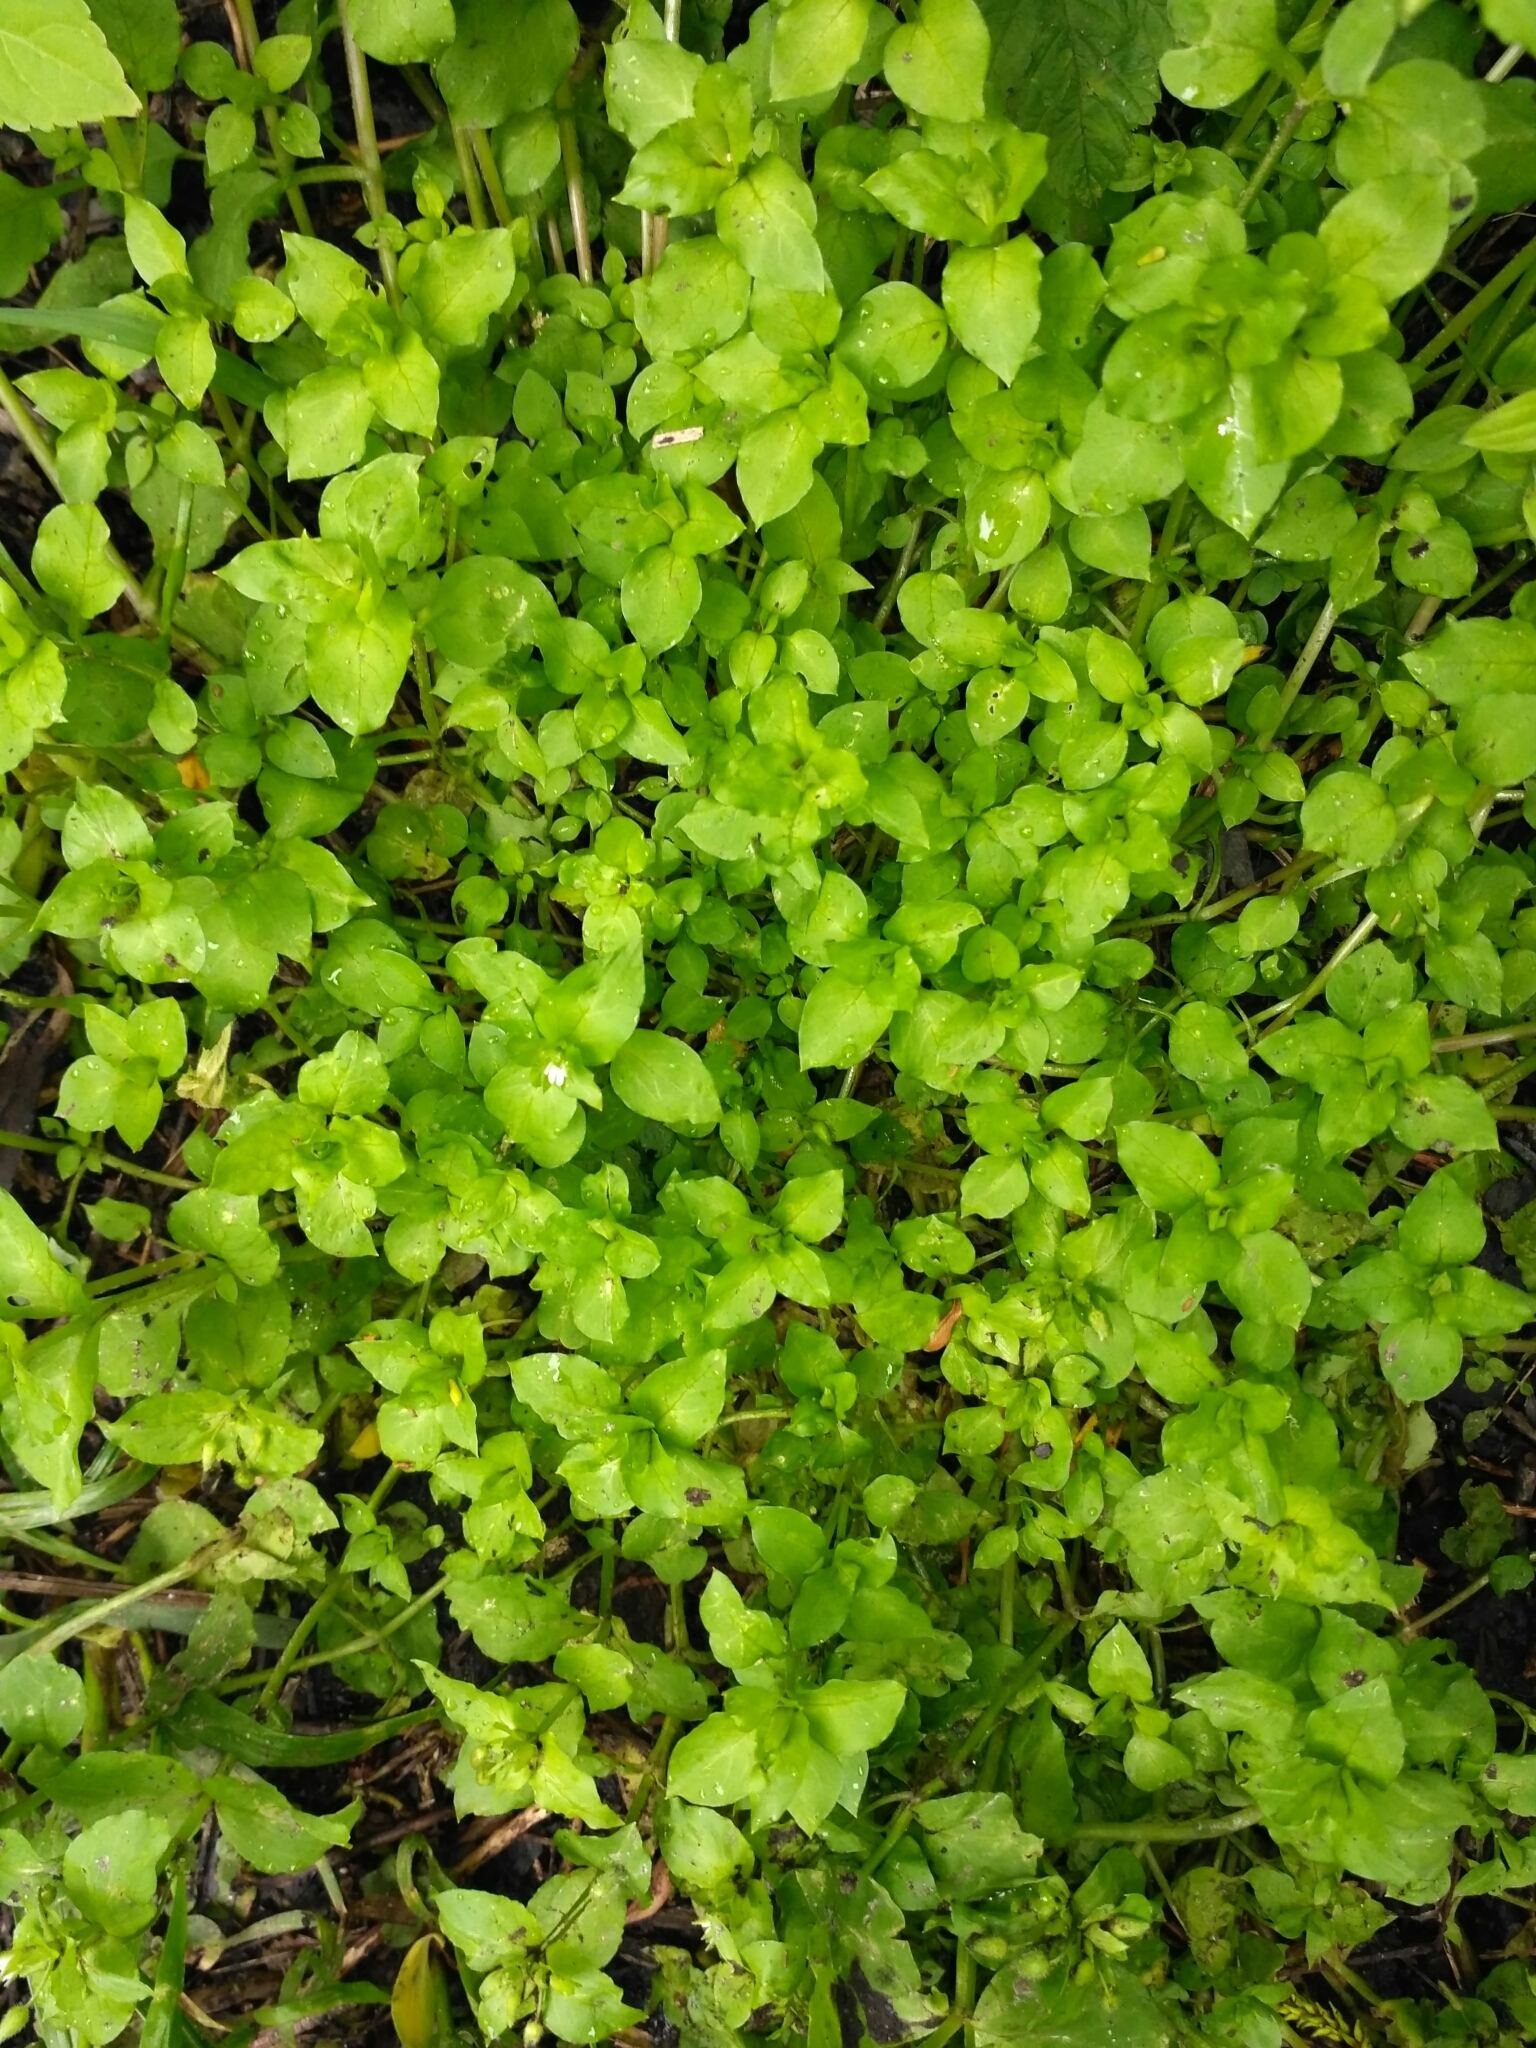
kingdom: Plantae
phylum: Tracheophyta
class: Magnoliopsida
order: Caryophyllales
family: Caryophyllaceae
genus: Stellaria
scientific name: Stellaria media
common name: Common chickweed
